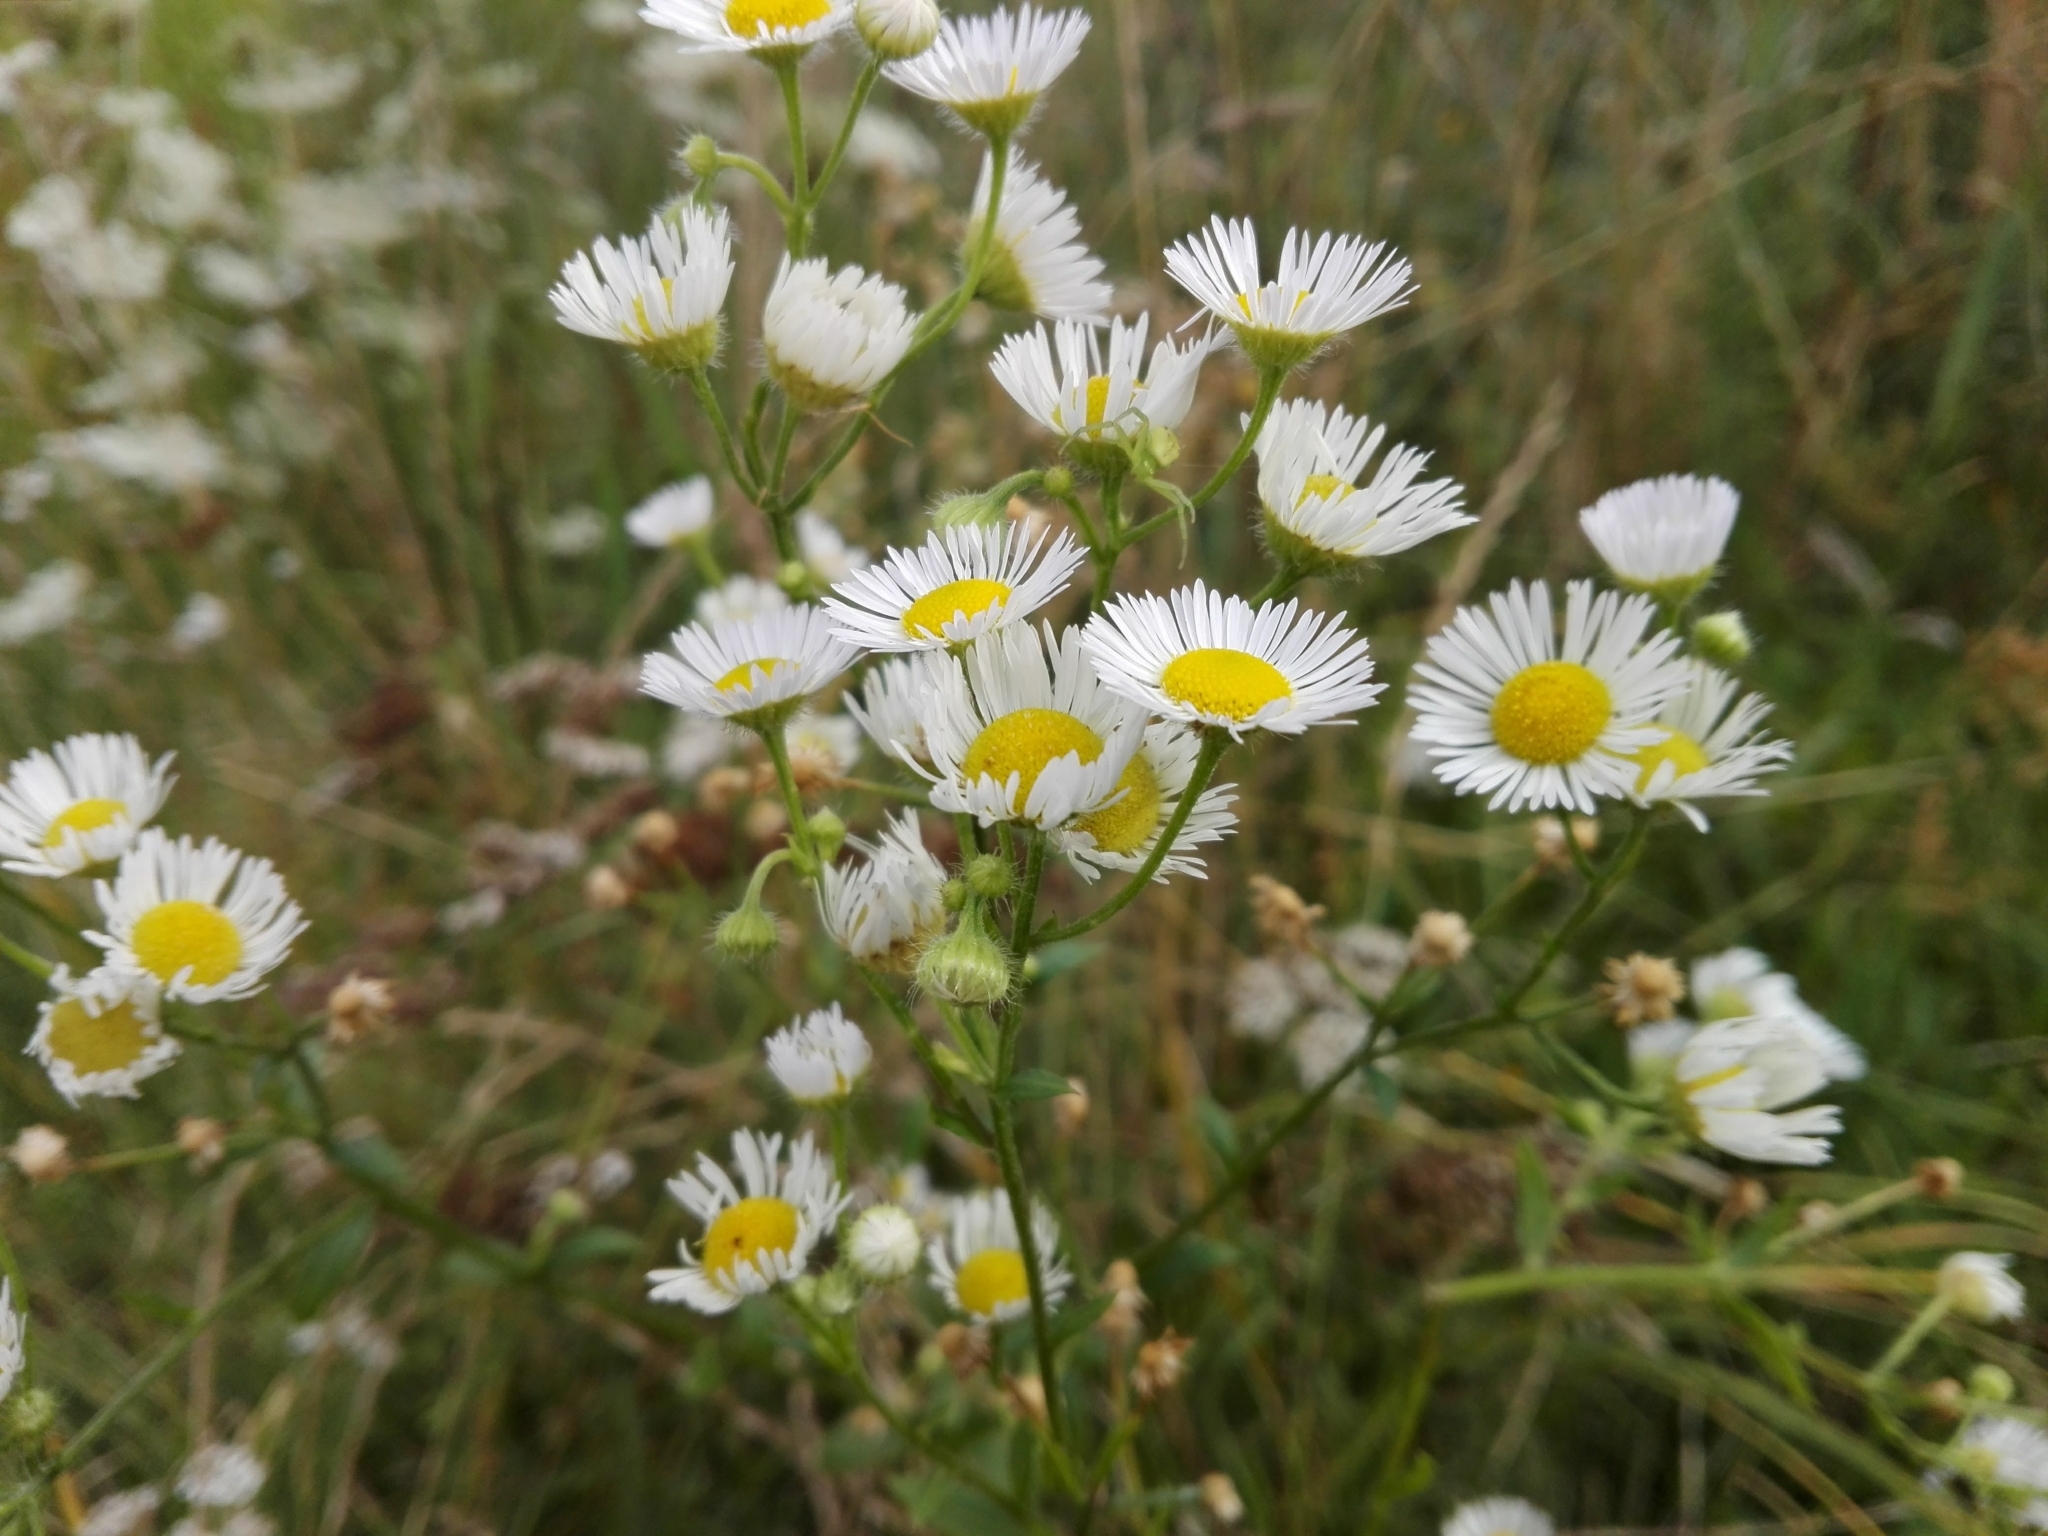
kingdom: Plantae
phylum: Tracheophyta
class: Magnoliopsida
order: Asterales
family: Asteraceae
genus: Erigeron
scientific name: Erigeron annuus
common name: Tall fleabane
